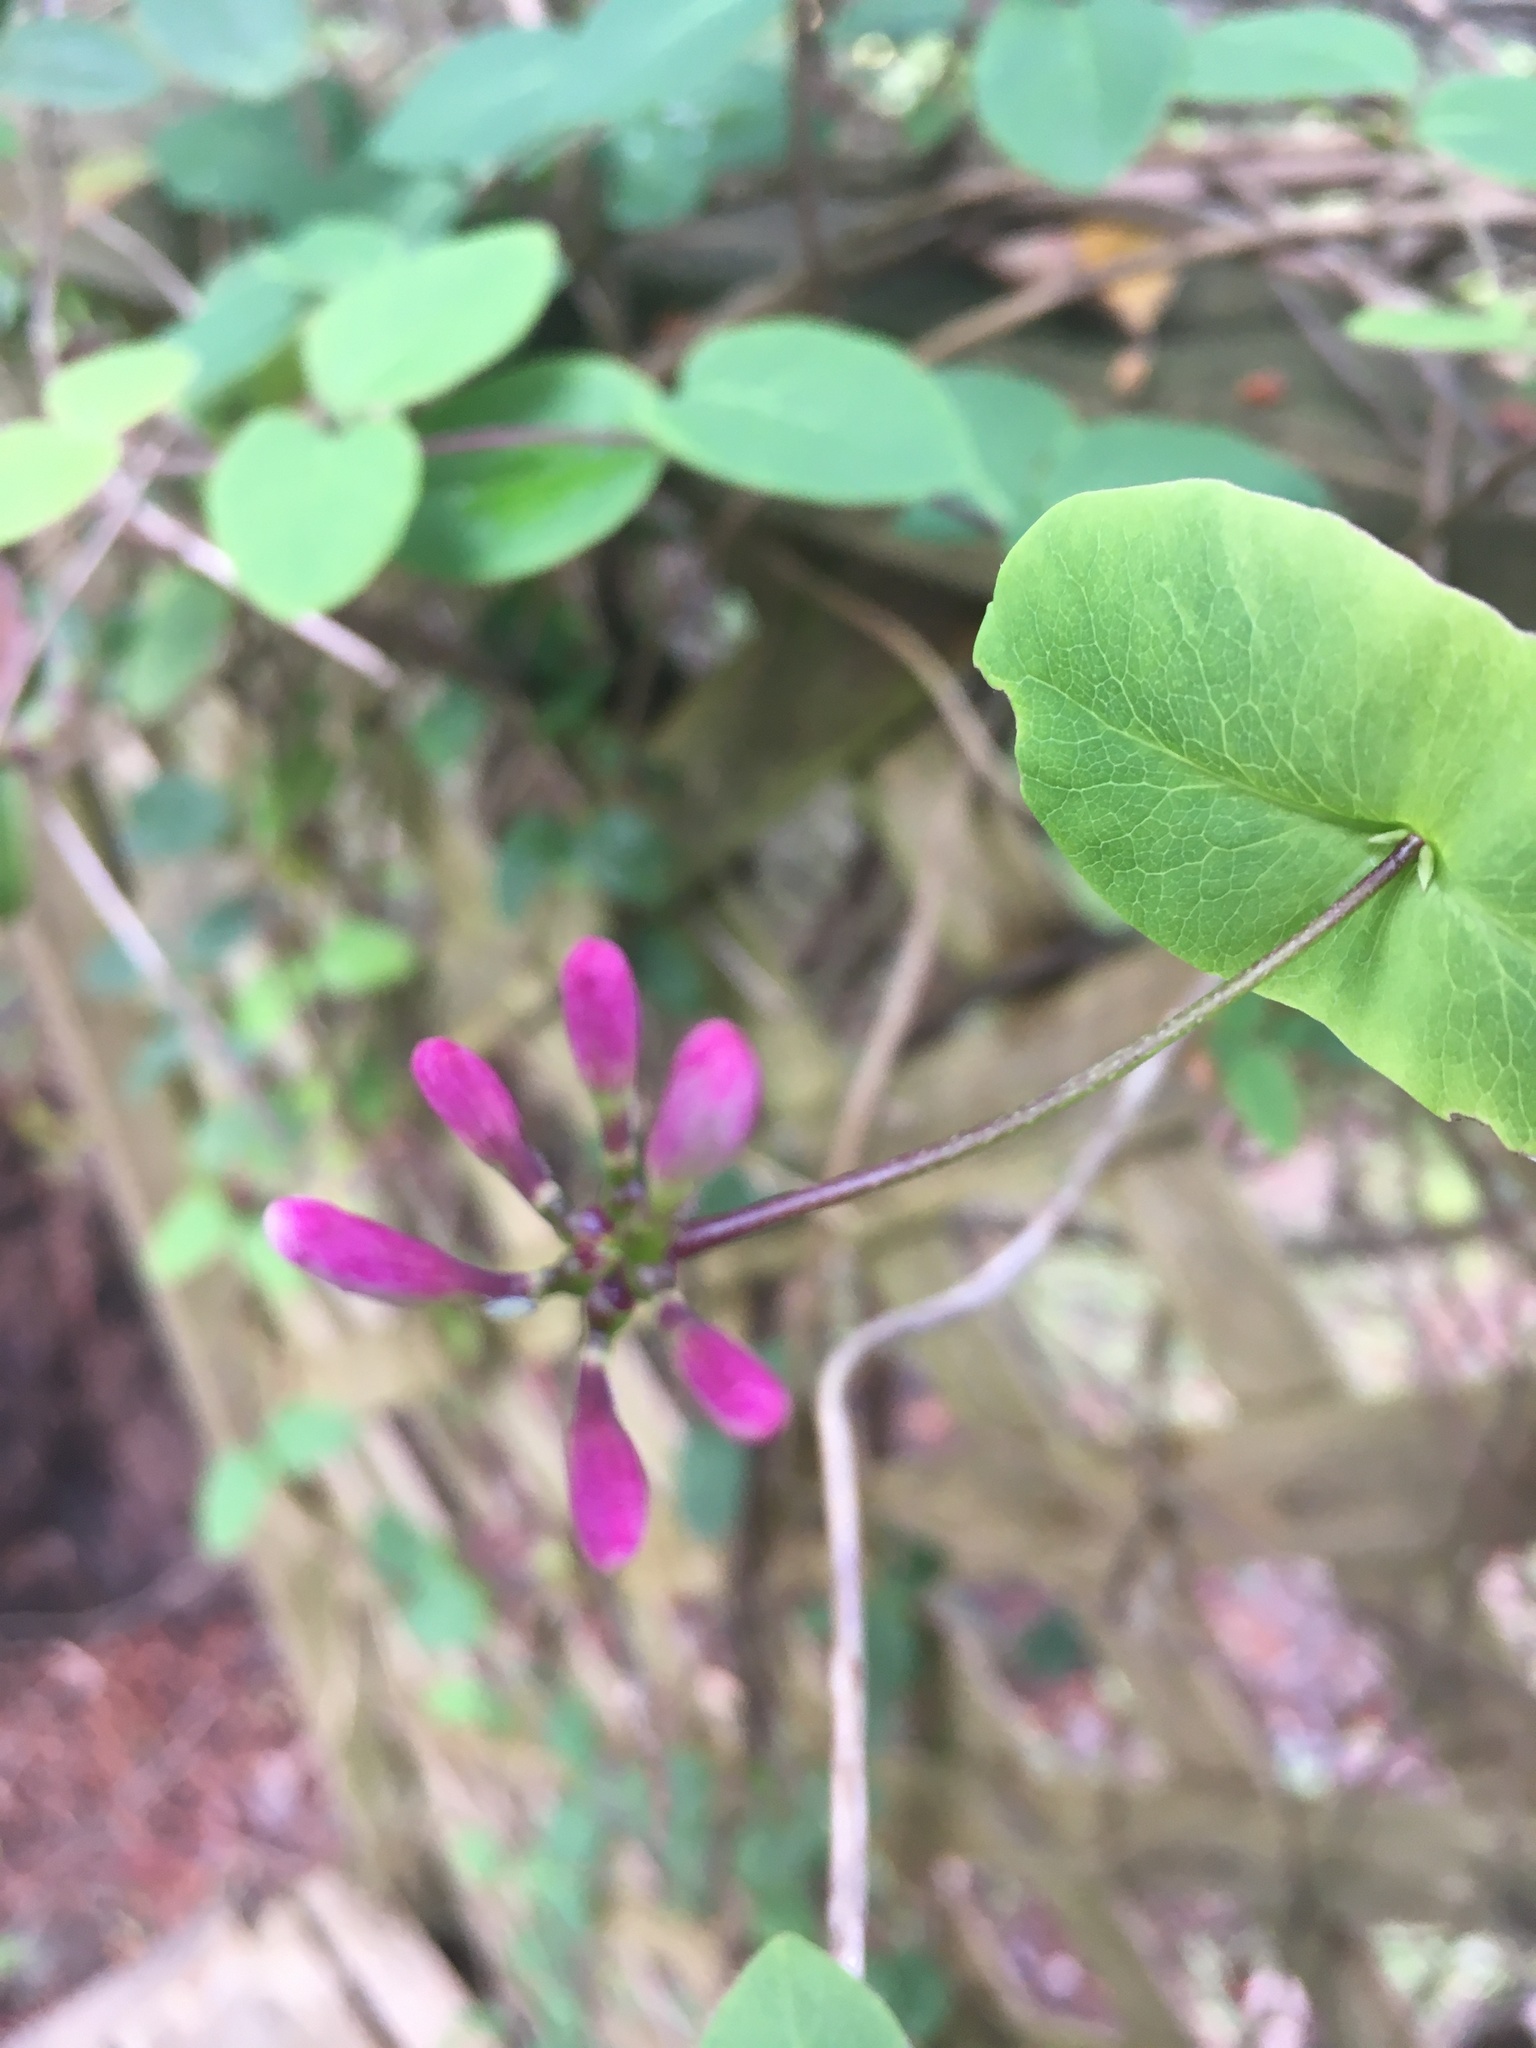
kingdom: Plantae
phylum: Tracheophyta
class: Magnoliopsida
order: Dipsacales
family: Caprifoliaceae
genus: Lonicera
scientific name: Lonicera hispidula
